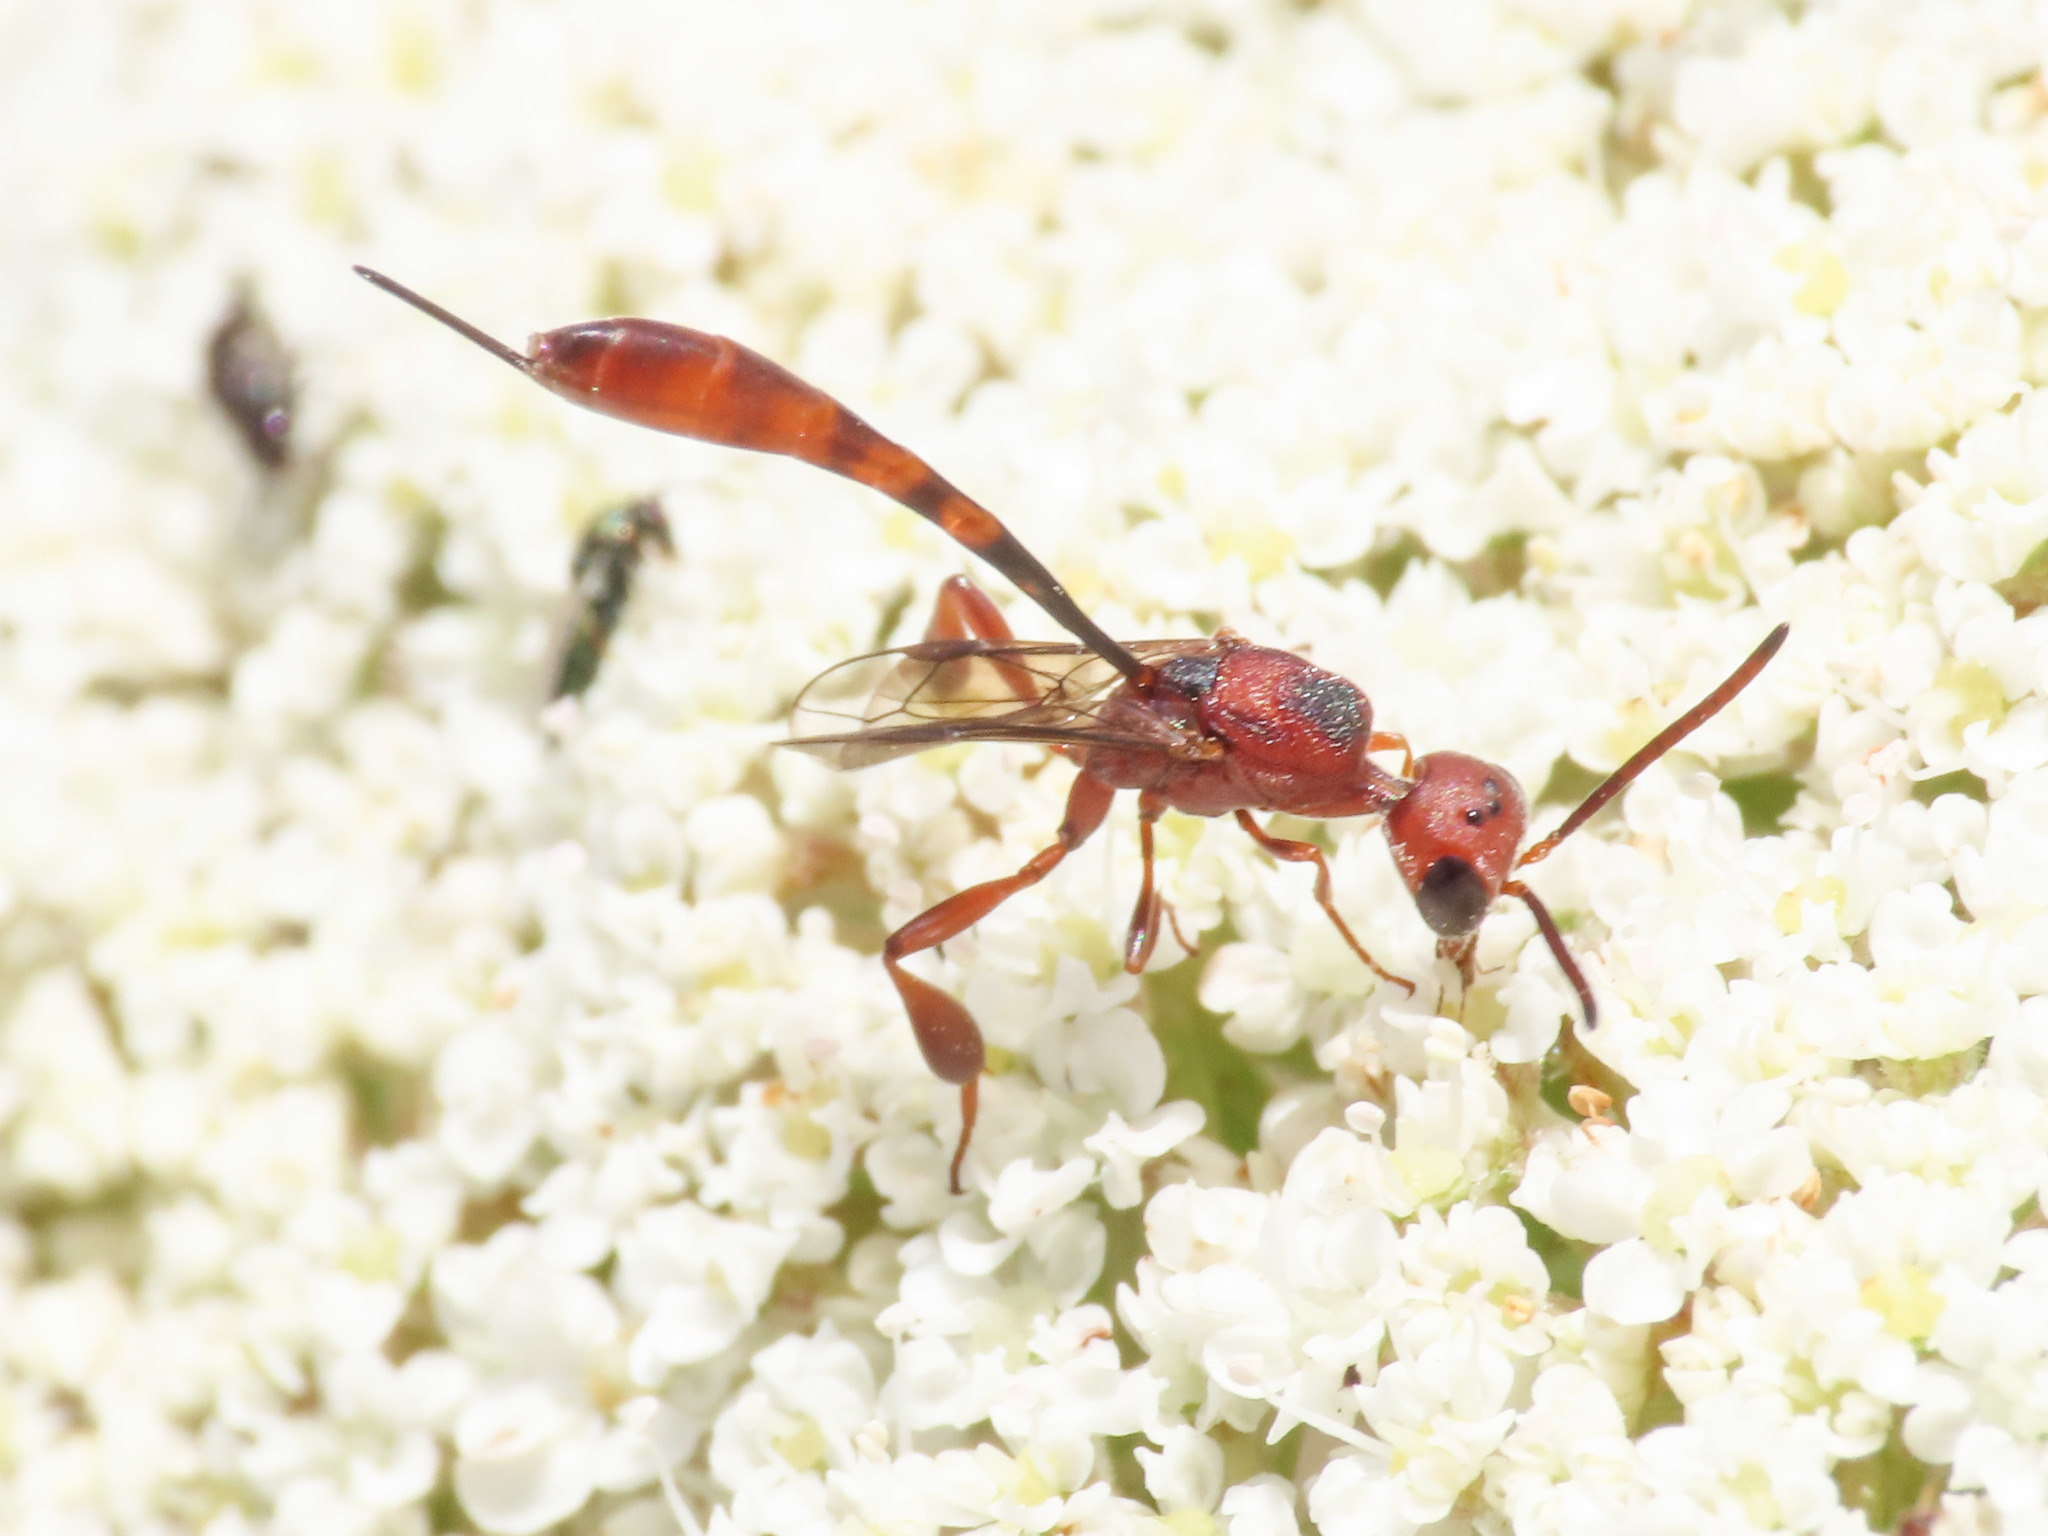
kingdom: Animalia
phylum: Arthropoda
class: Insecta
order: Hymenoptera
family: Gasteruptiidae
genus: Gasteruption
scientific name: Gasteruption hastator
